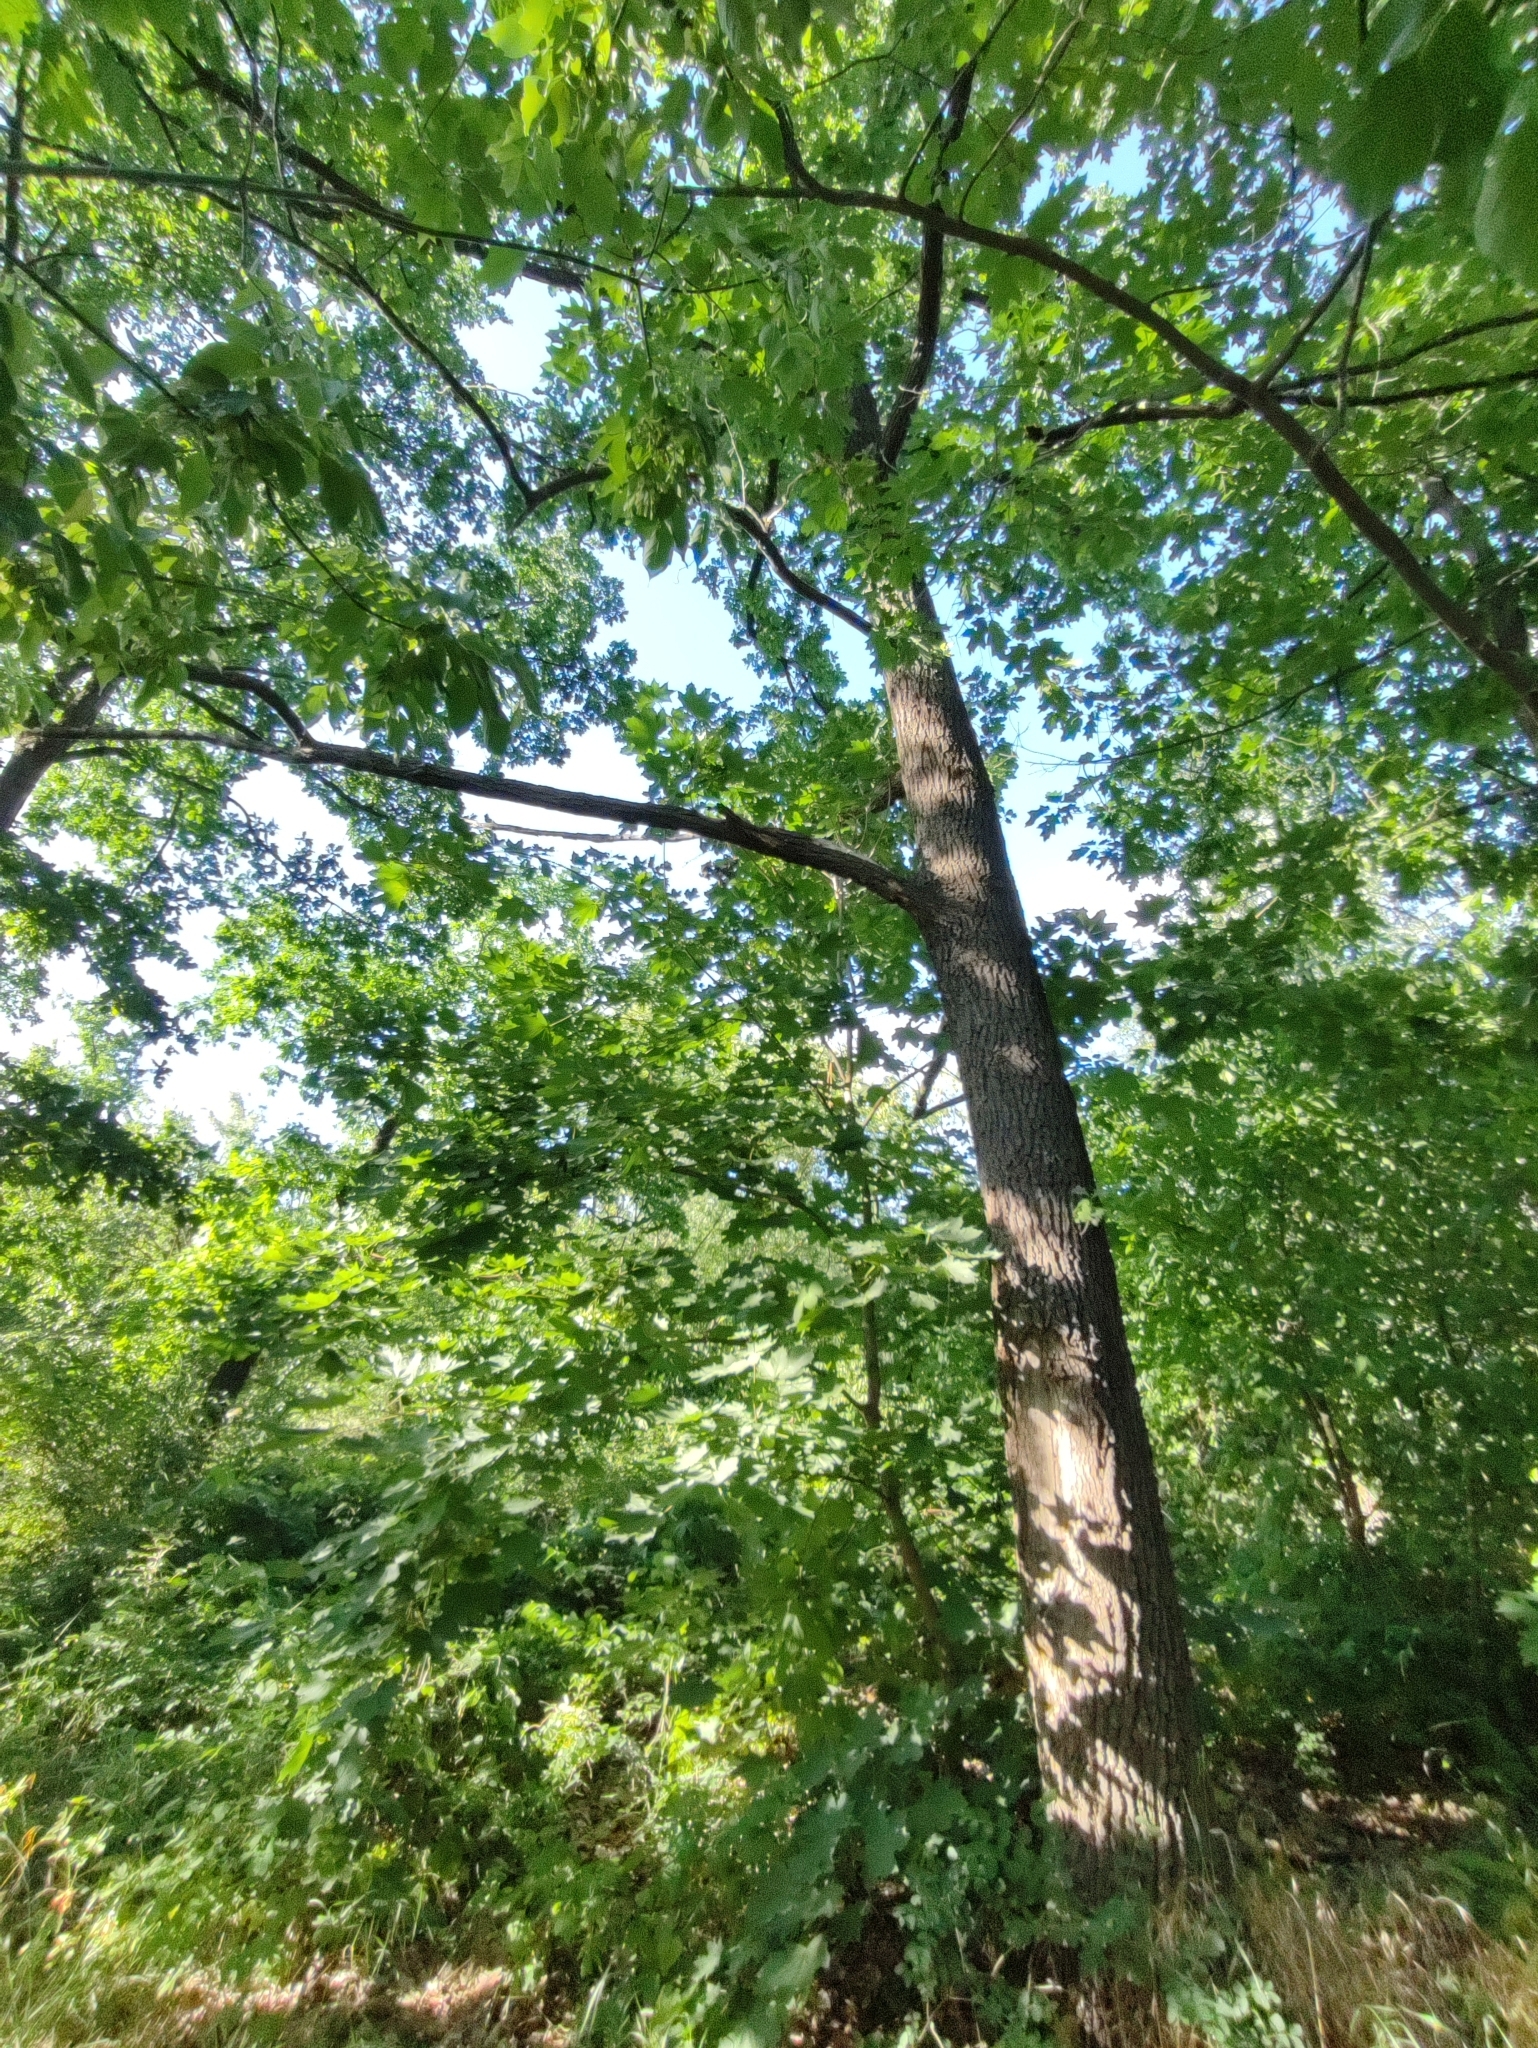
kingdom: Plantae
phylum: Tracheophyta
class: Magnoliopsida
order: Fagales
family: Fagaceae
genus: Quercus
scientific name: Quercus robur
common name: Pedunculate oak
